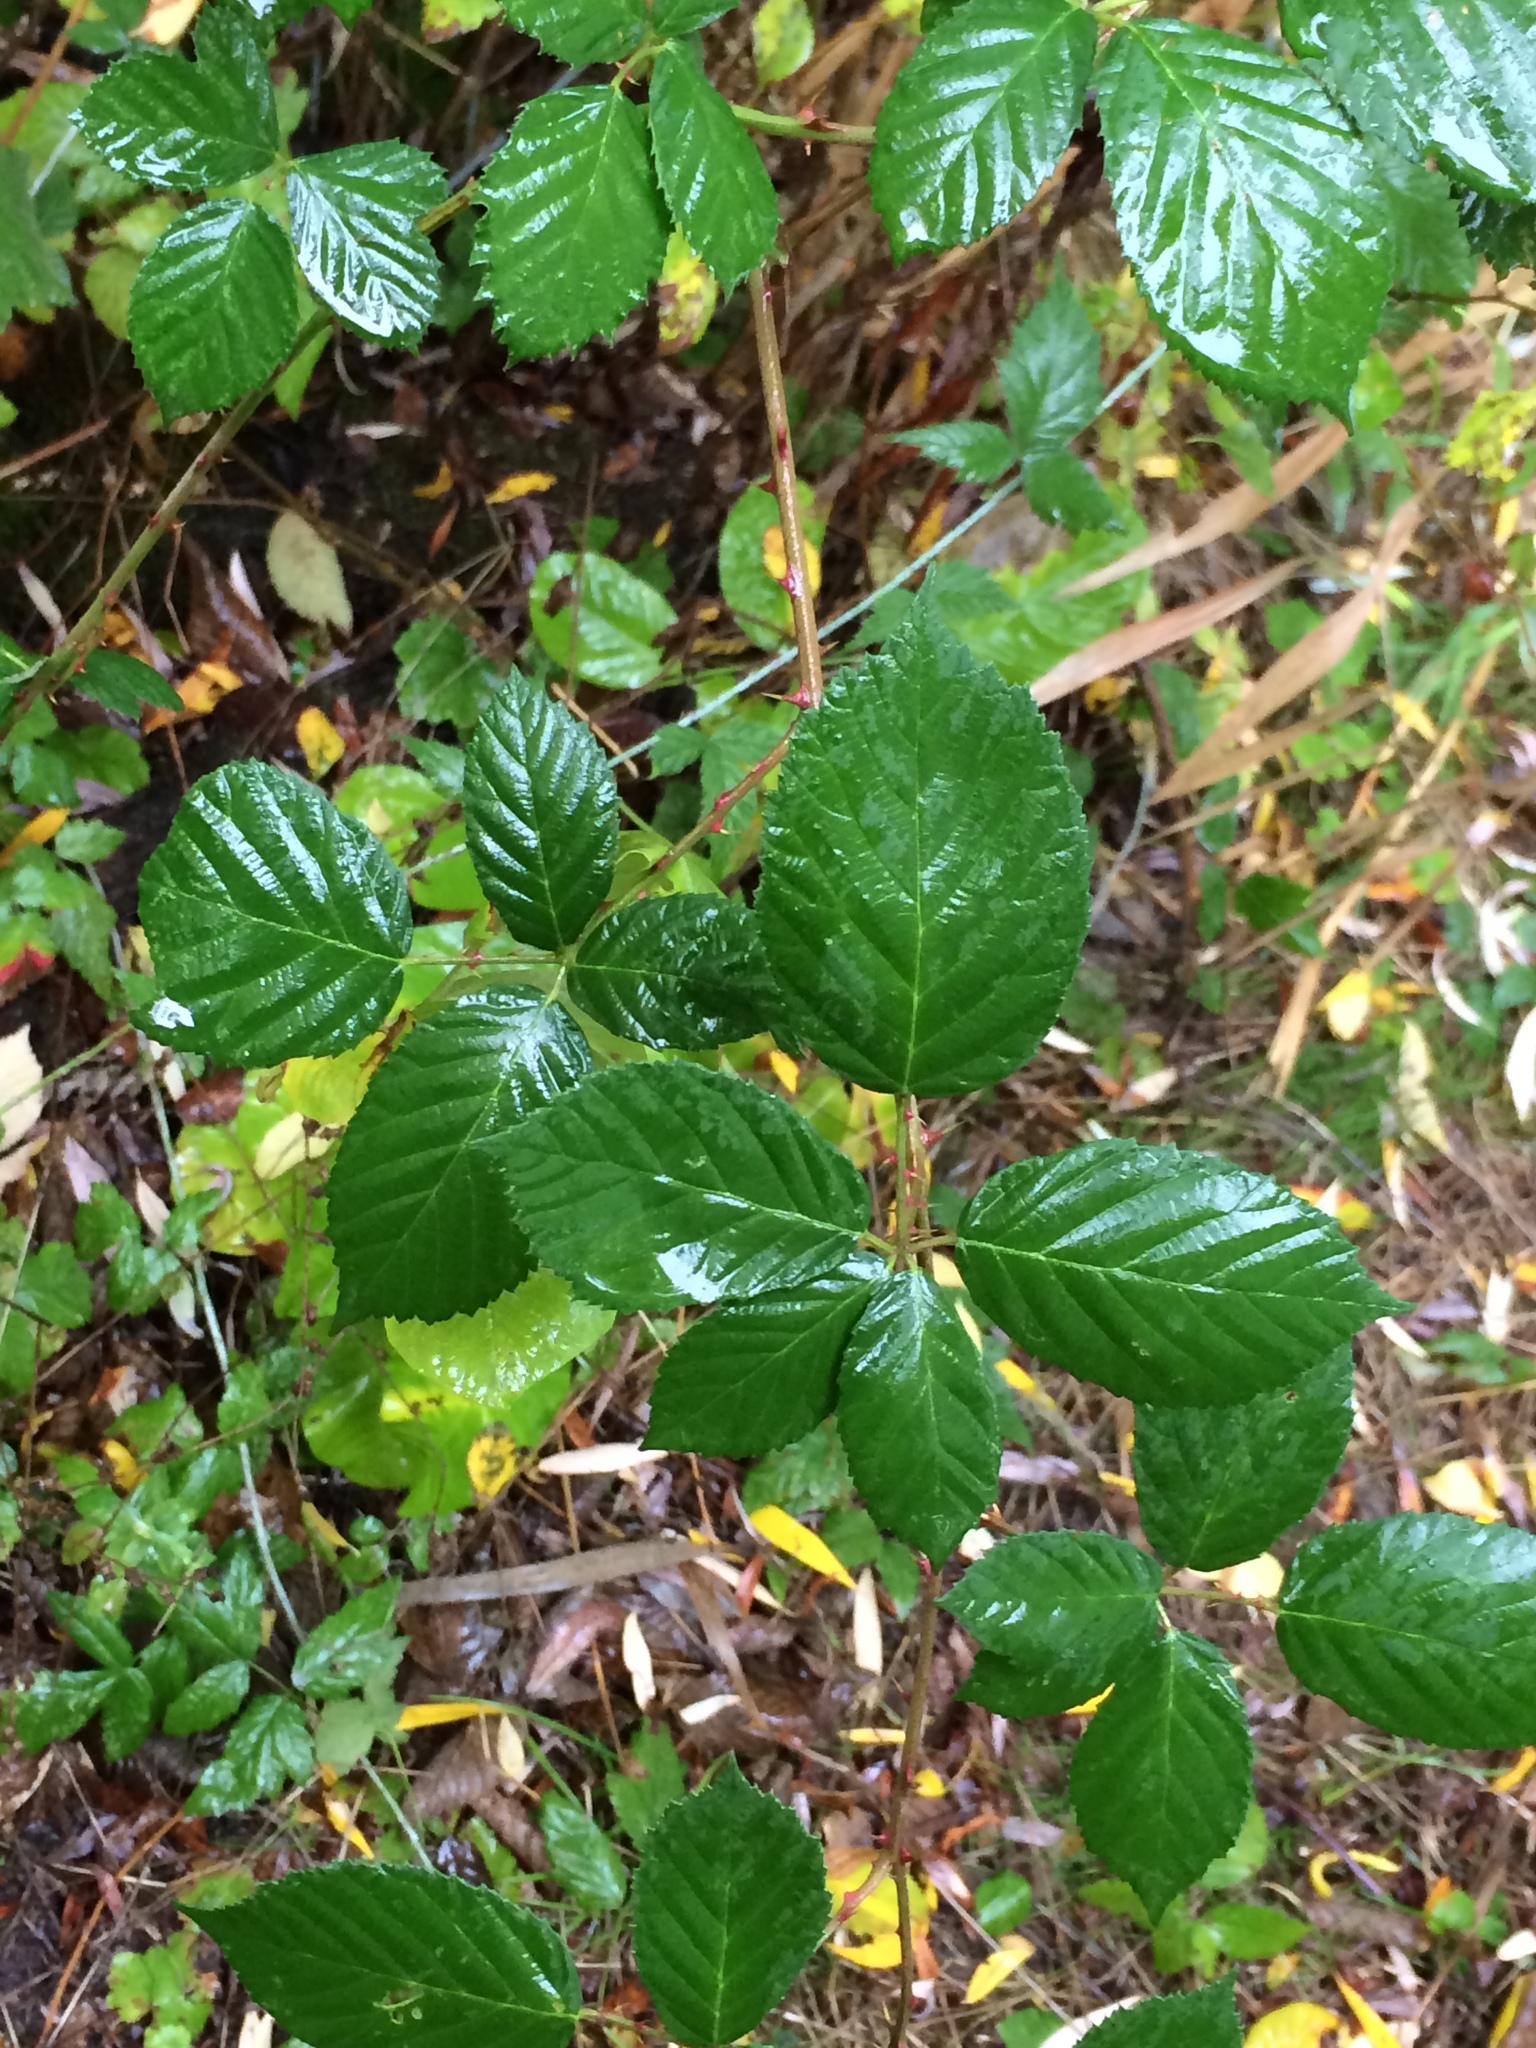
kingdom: Plantae
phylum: Tracheophyta
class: Magnoliopsida
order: Rosales
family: Rosaceae
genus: Rubus
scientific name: Rubus bifrons
